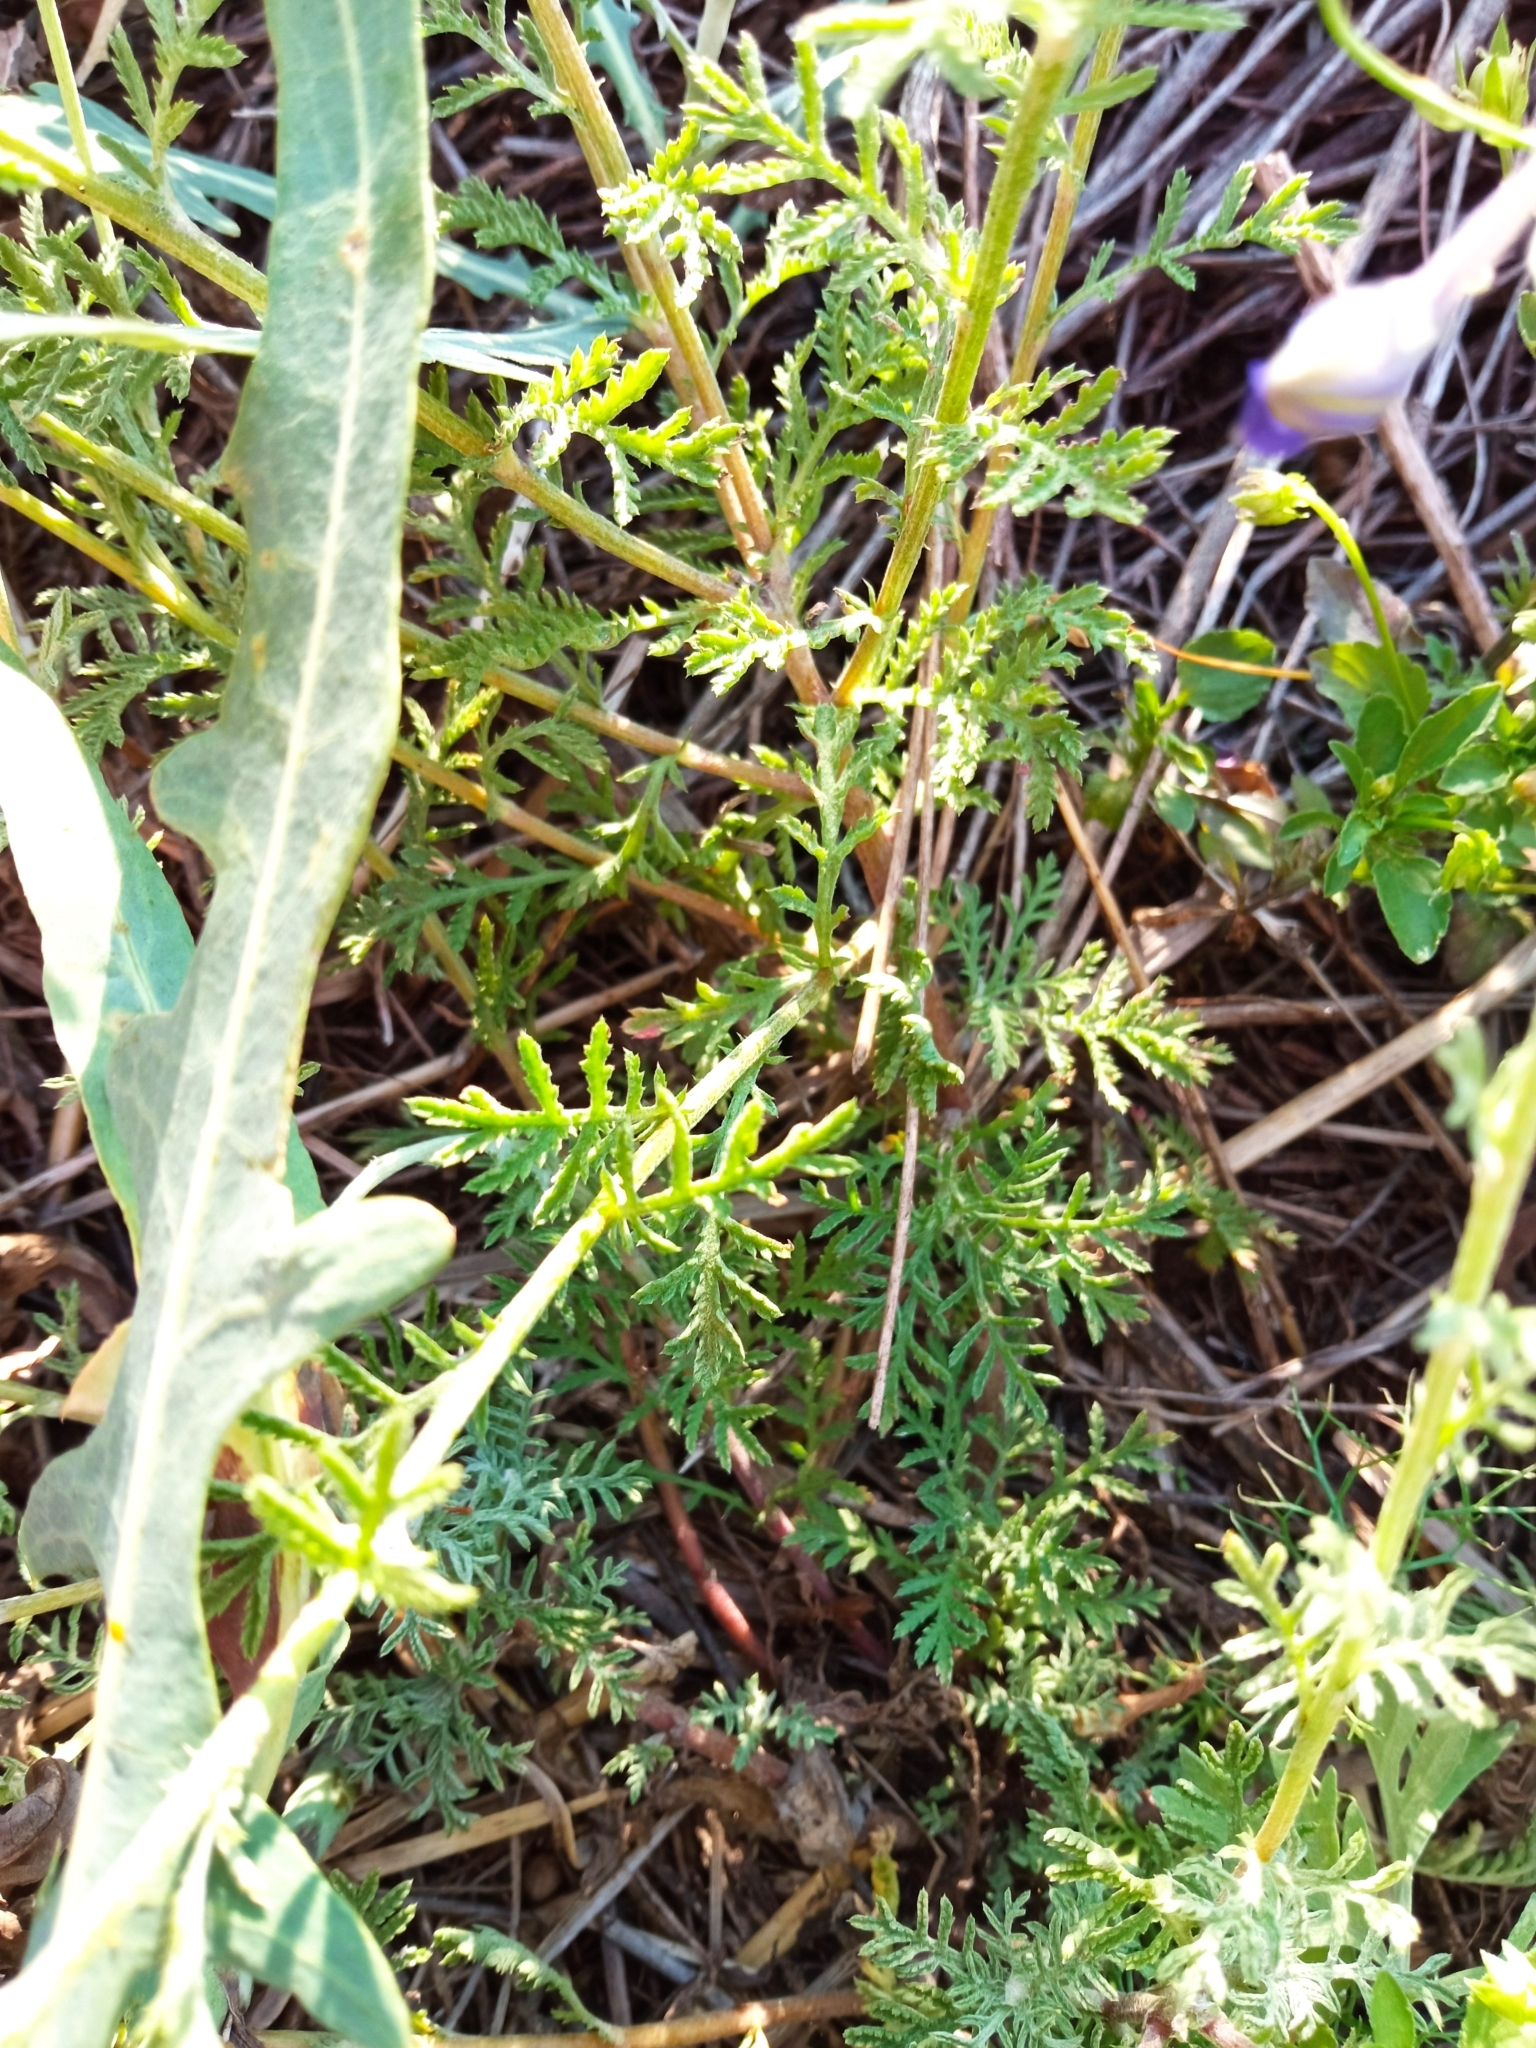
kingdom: Plantae
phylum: Tracheophyta
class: Magnoliopsida
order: Asterales
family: Asteraceae
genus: Cota
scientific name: Cota tinctoria
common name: Golden chamomile
